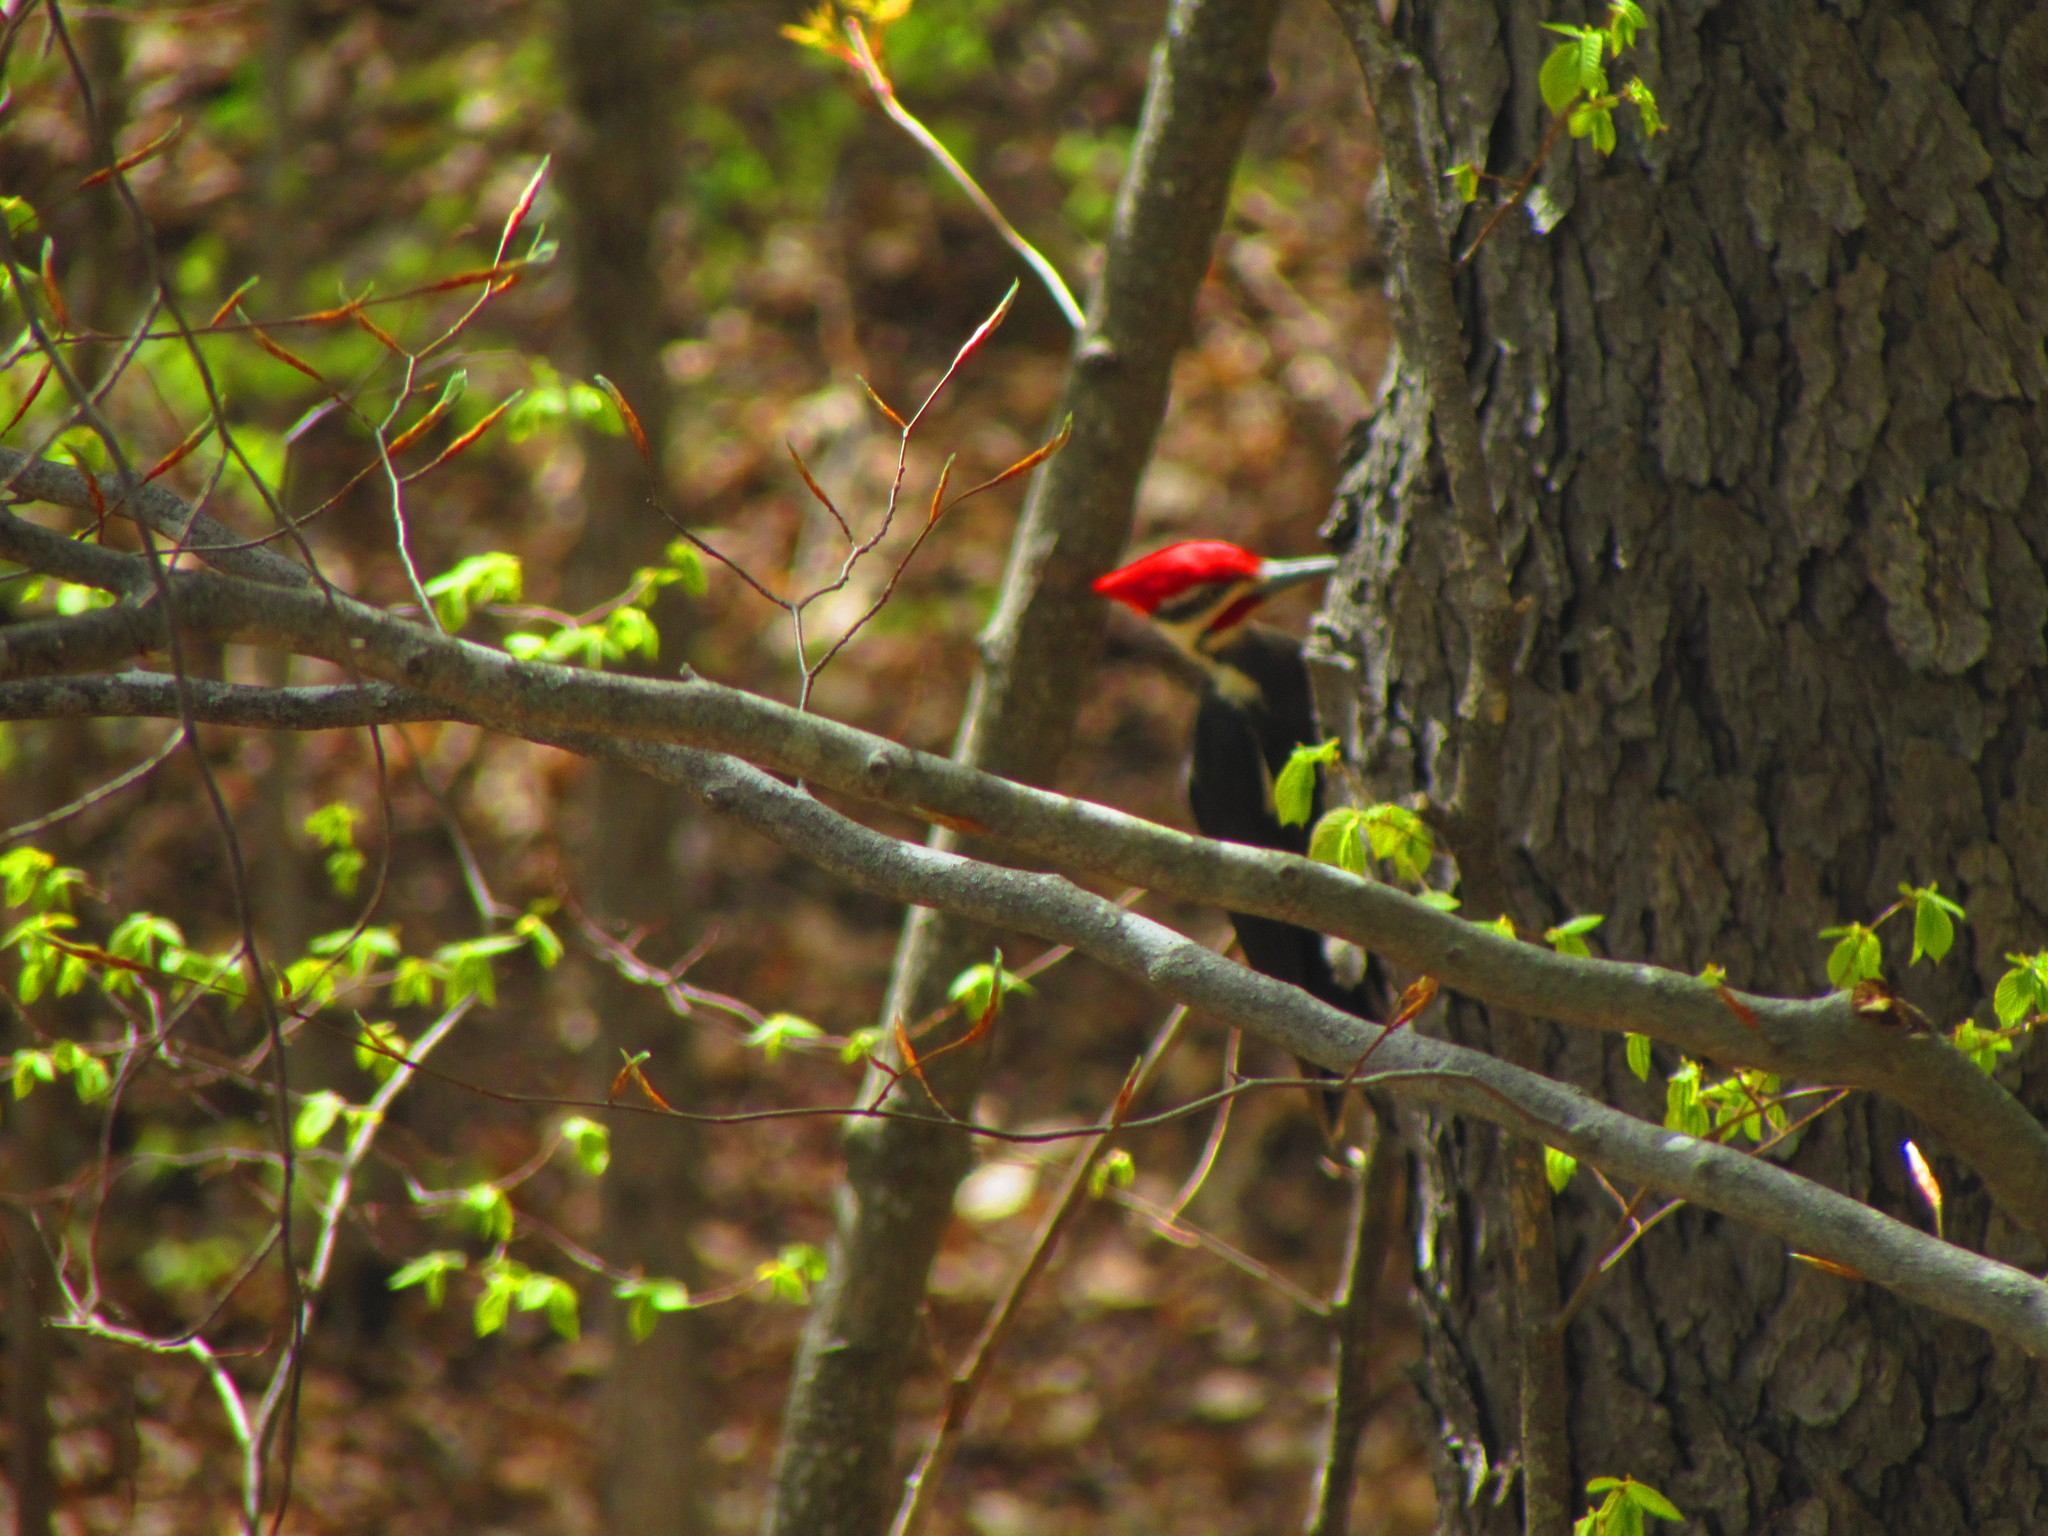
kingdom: Animalia
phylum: Chordata
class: Aves
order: Piciformes
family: Picidae
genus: Dryocopus
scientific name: Dryocopus pileatus
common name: Pileated woodpecker
